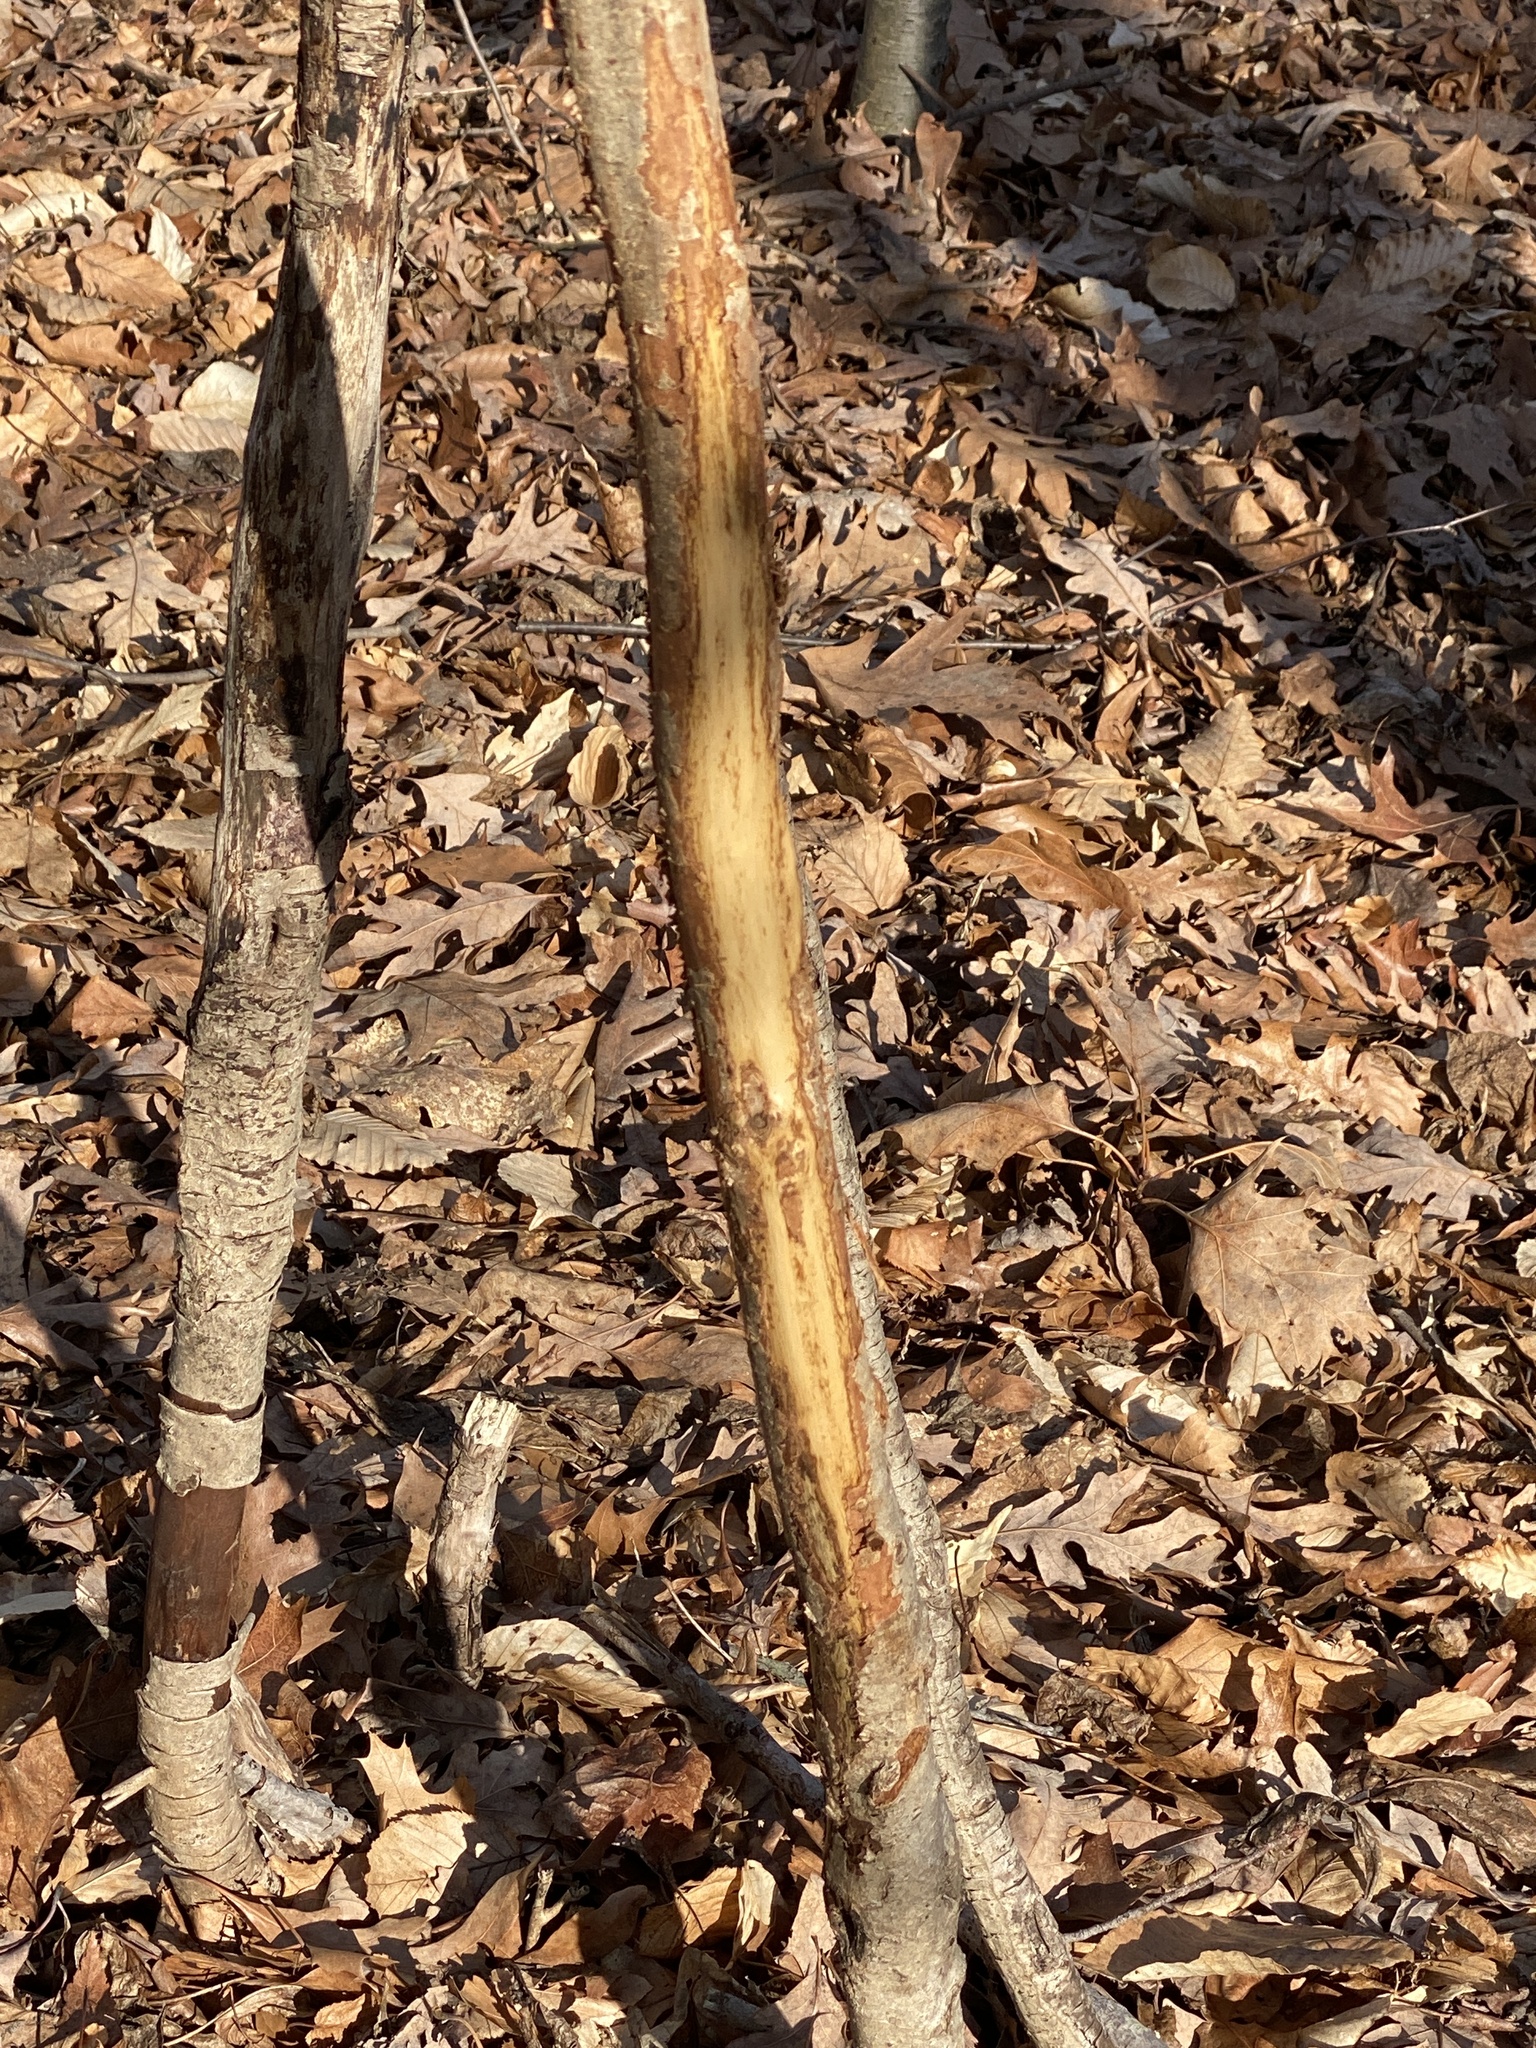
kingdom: Animalia
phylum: Chordata
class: Mammalia
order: Artiodactyla
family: Cervidae
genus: Odocoileus
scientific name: Odocoileus virginianus
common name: White-tailed deer
